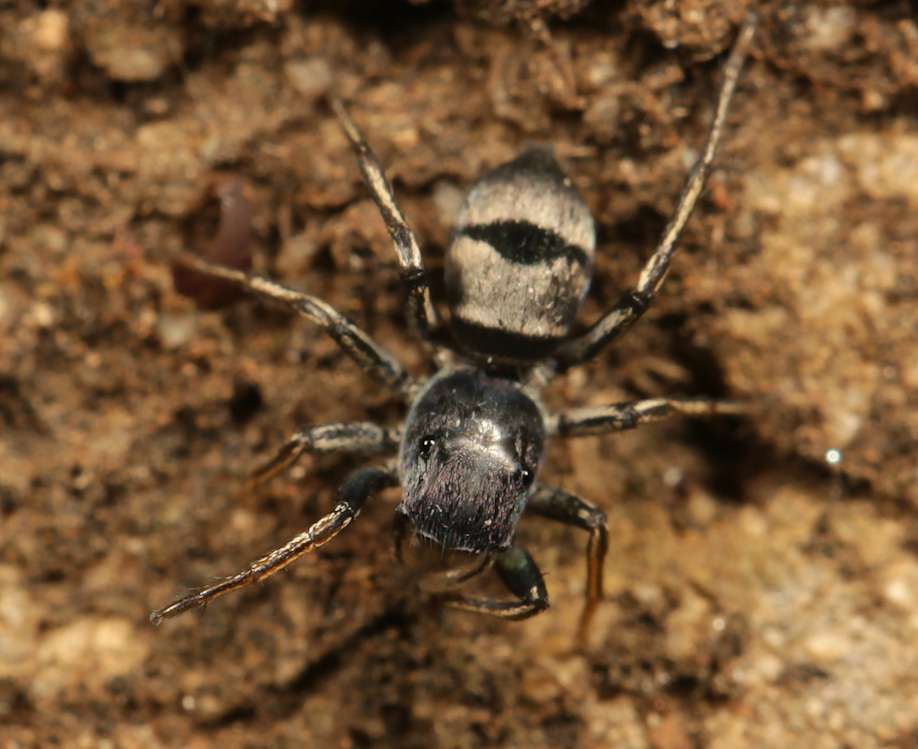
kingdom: Animalia
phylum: Arthropoda
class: Arachnida
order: Araneae
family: Salticidae
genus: Mexcala
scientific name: Mexcala elegans
